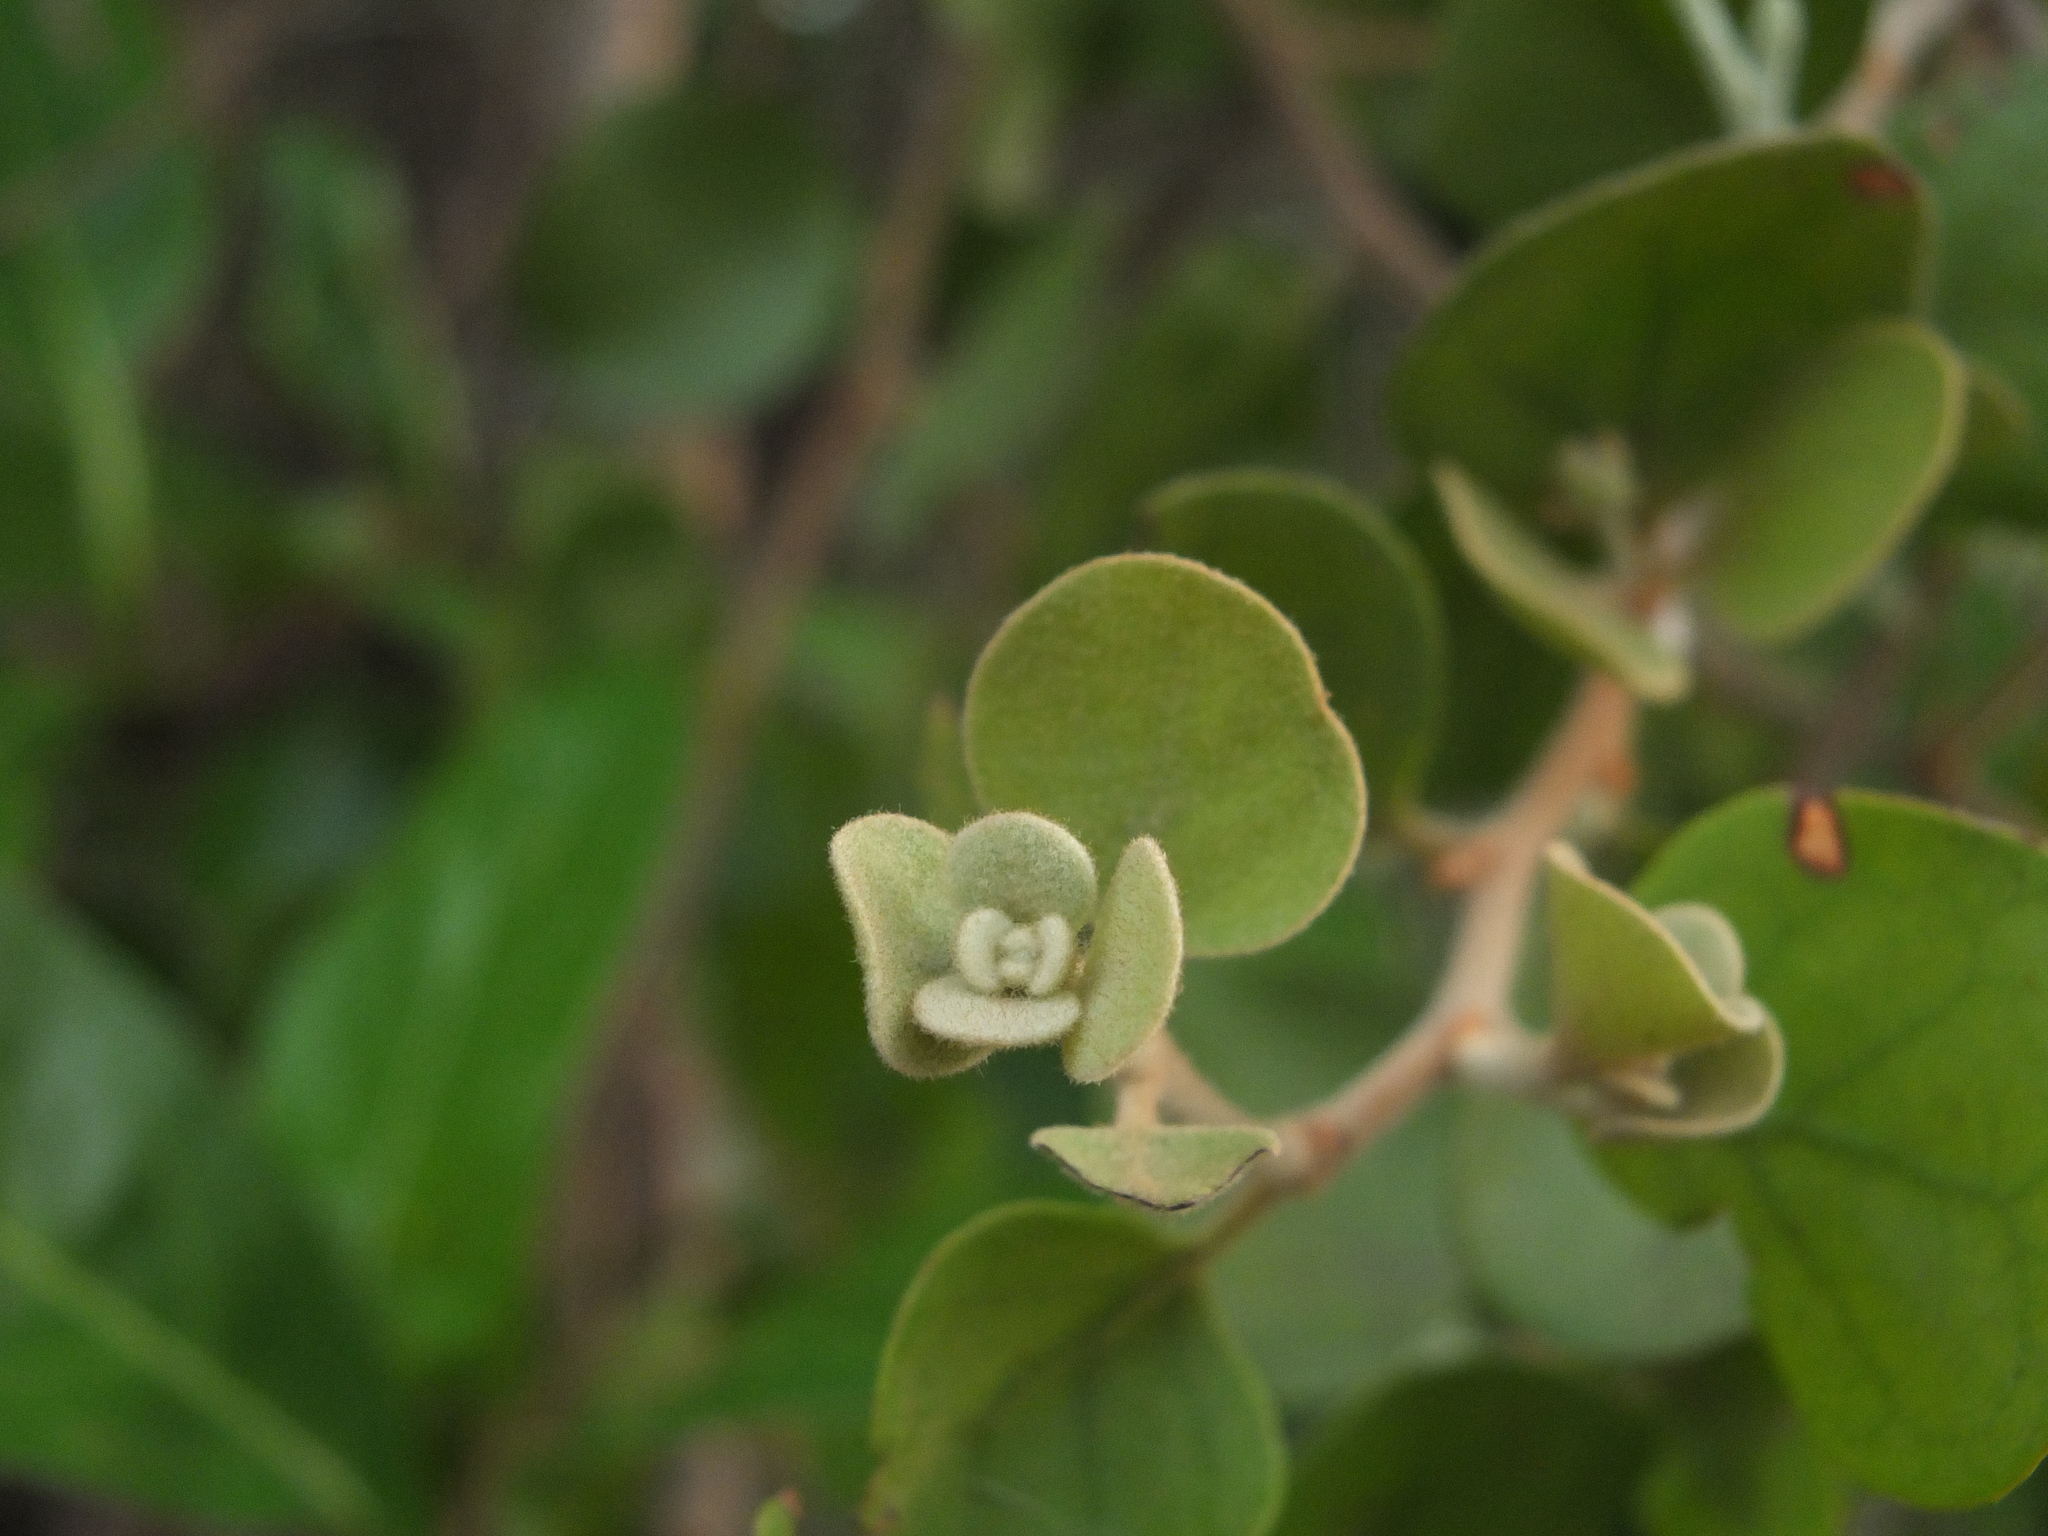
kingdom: Plantae
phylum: Tracheophyta
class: Magnoliopsida
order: Santalales
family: Loranthaceae
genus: Taxillus
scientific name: Taxillus heyneanus
